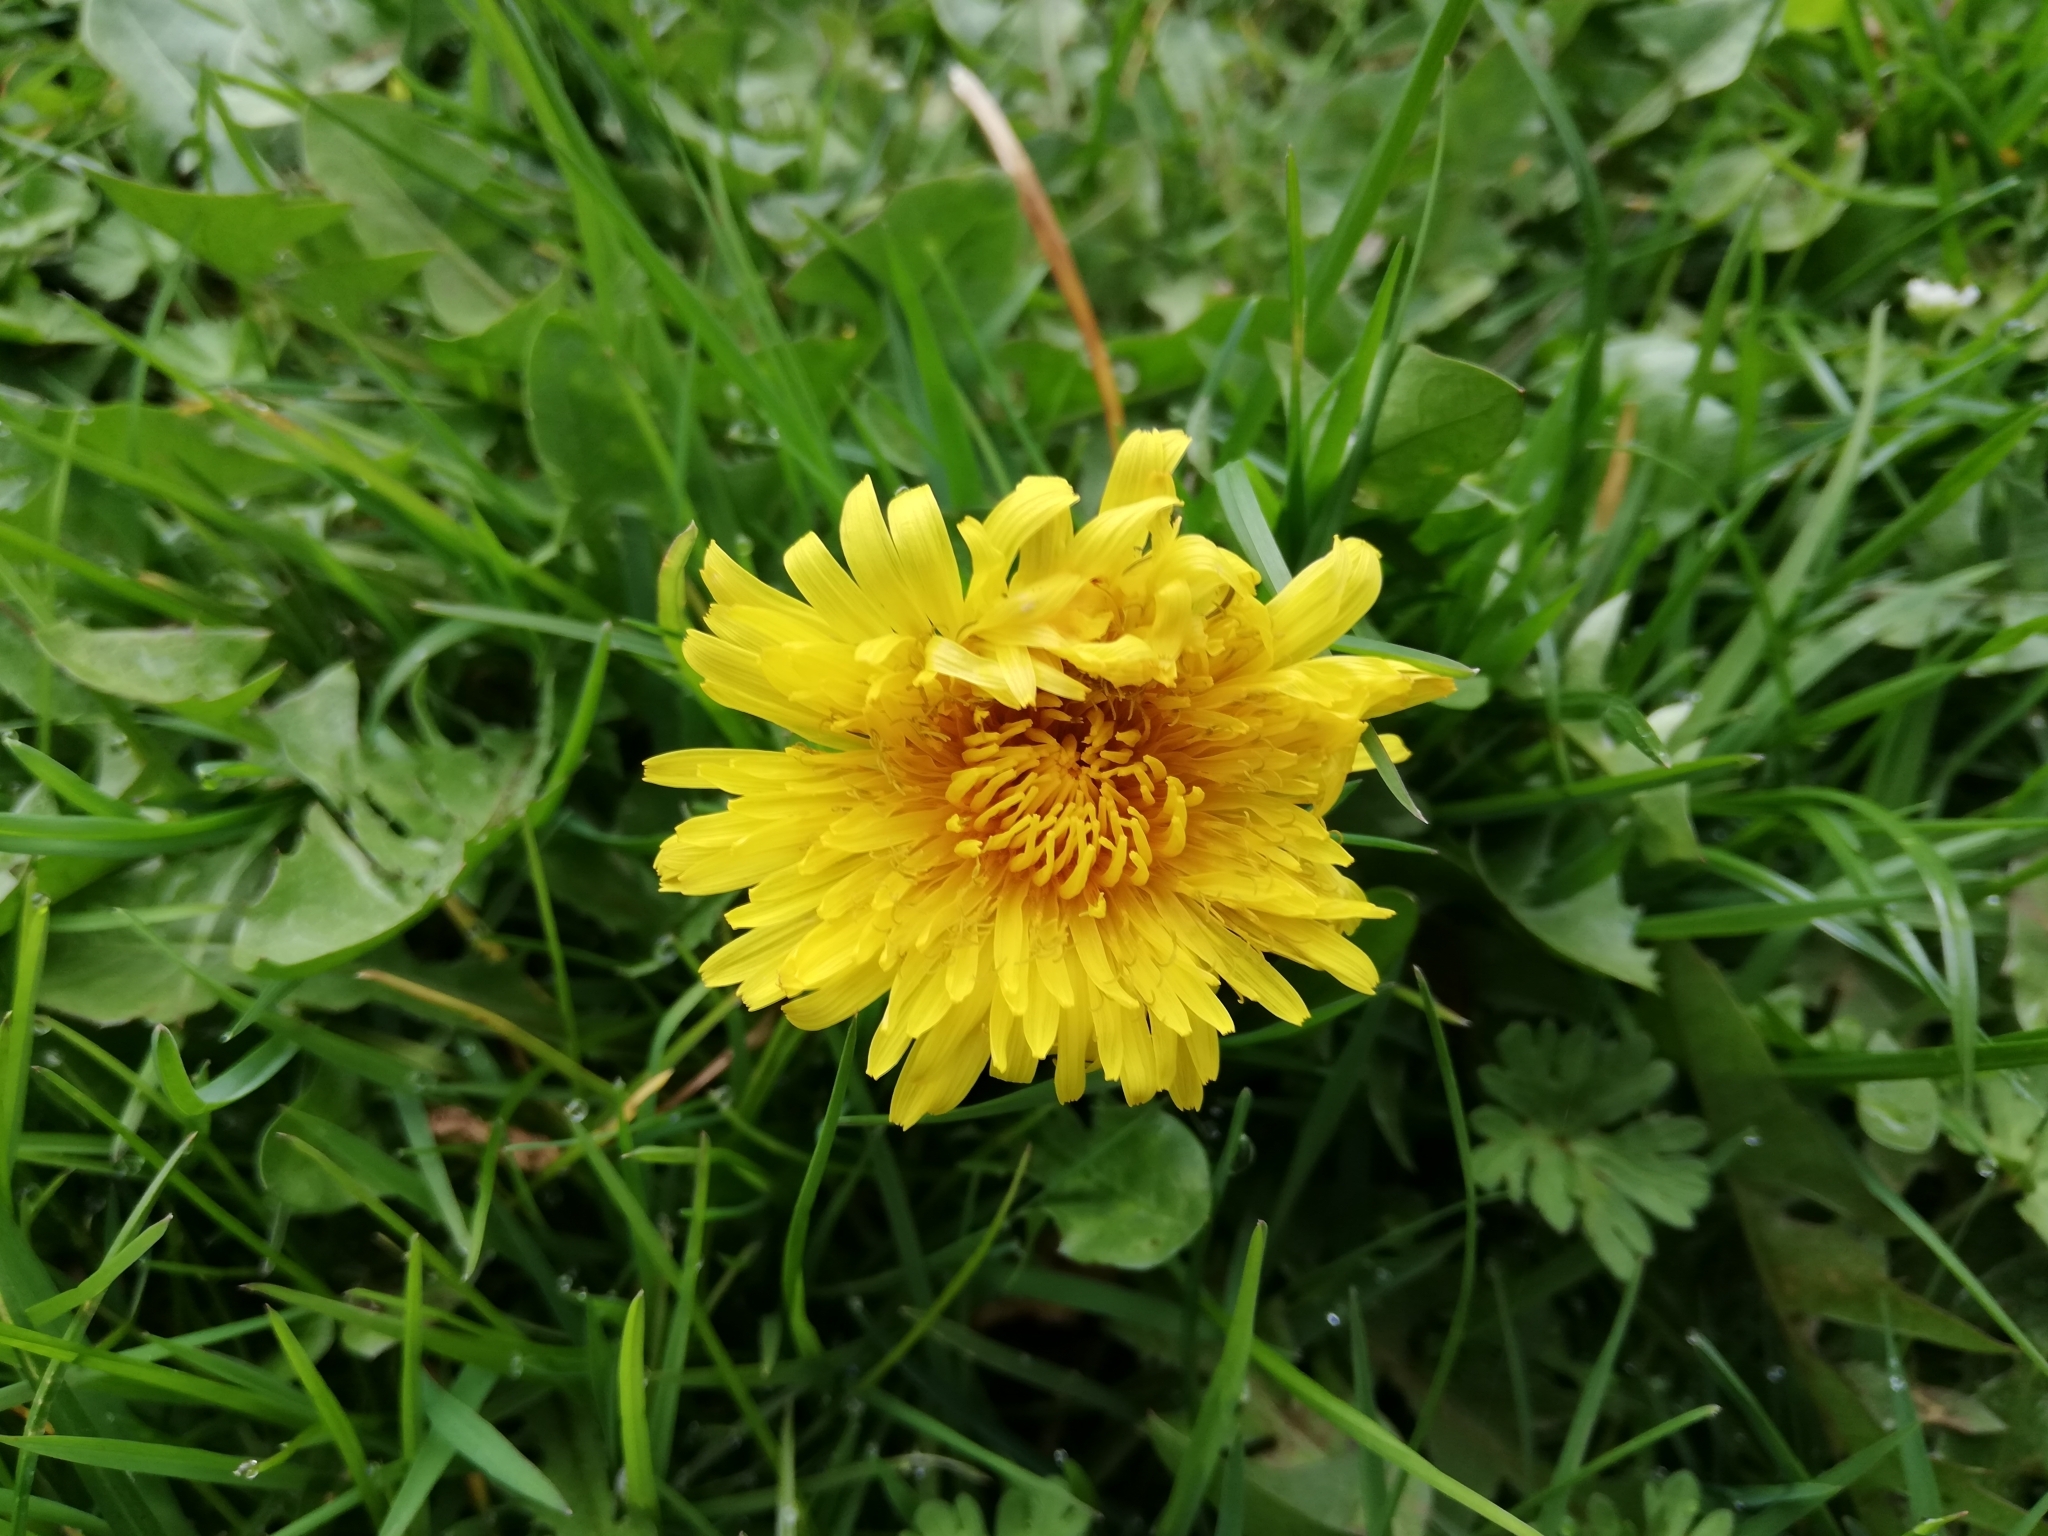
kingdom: Plantae
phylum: Tracheophyta
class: Magnoliopsida
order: Asterales
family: Asteraceae
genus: Taraxacum
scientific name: Taraxacum officinale
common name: Common dandelion
